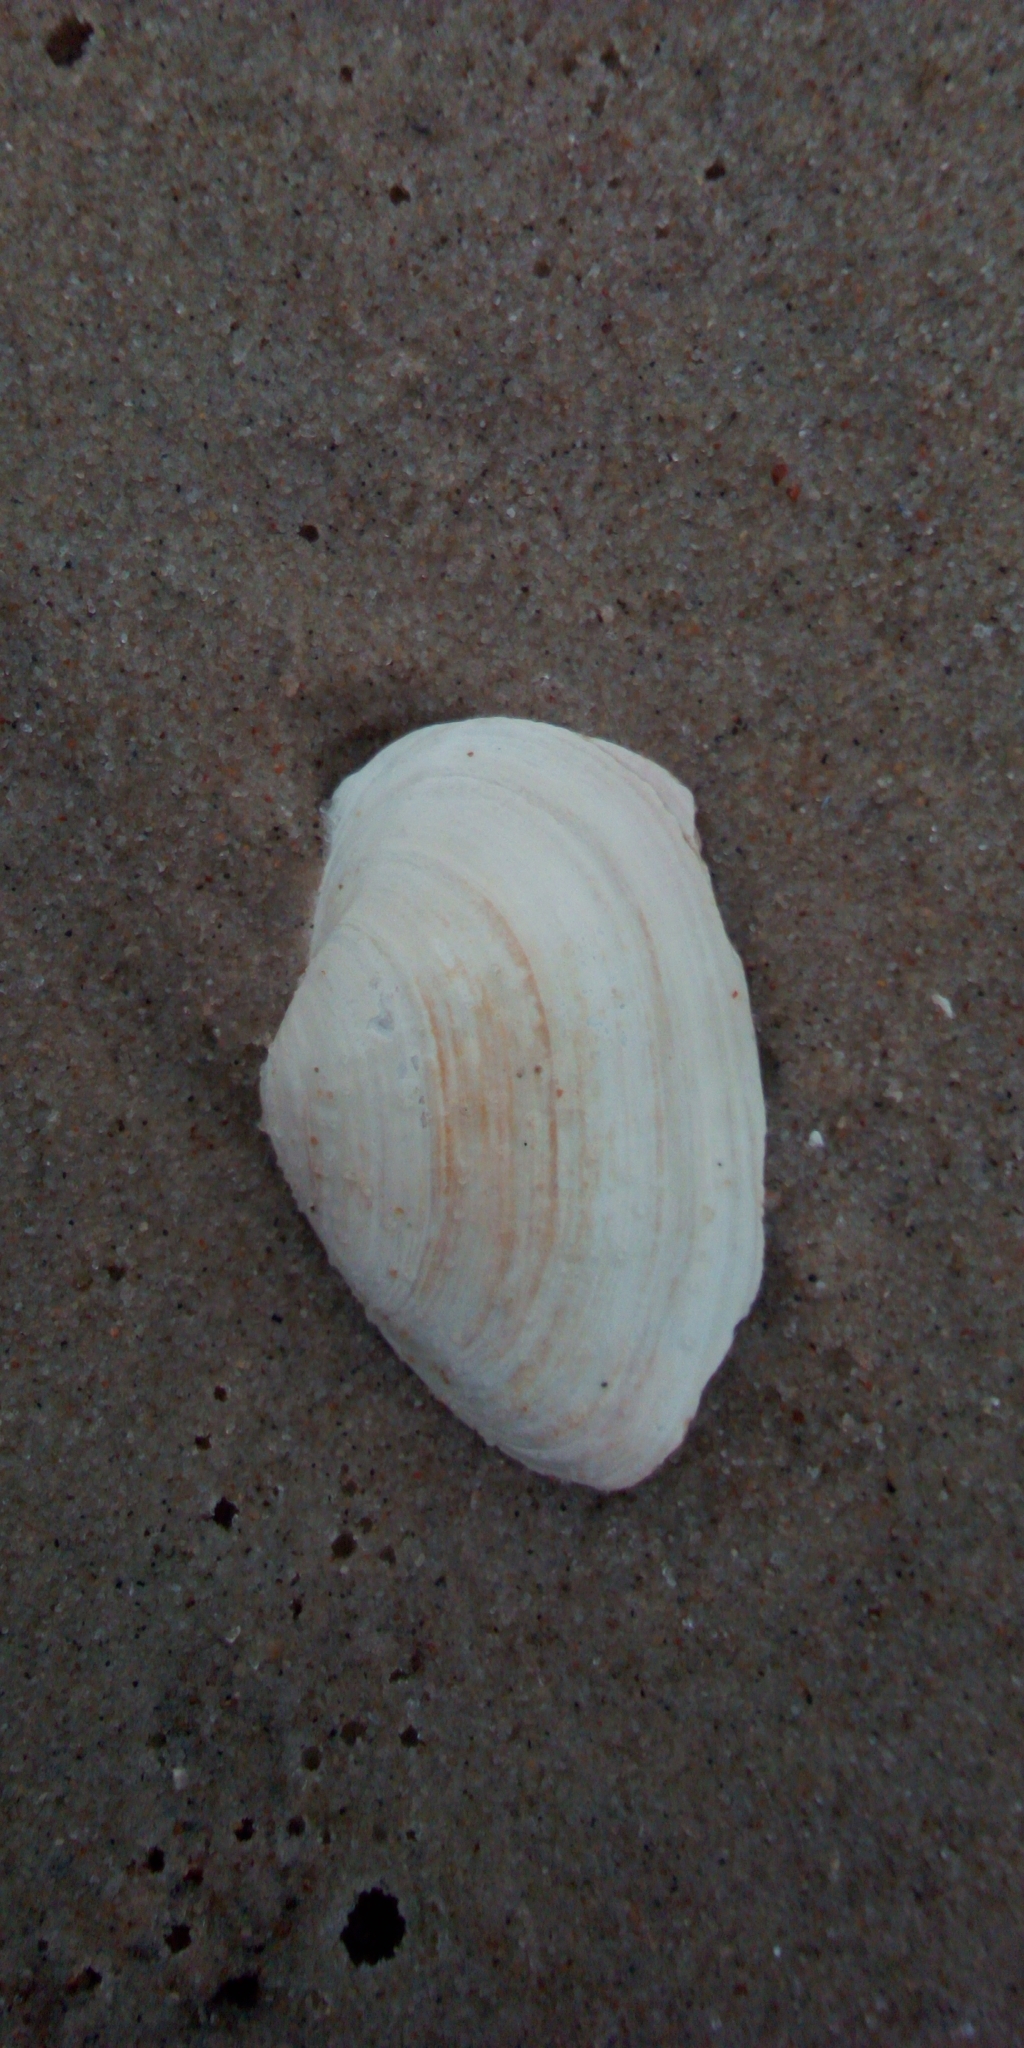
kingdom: Animalia
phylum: Mollusca
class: Bivalvia
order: Myida
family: Myidae
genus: Mya
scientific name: Mya arenaria
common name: Soft-shelled clam
